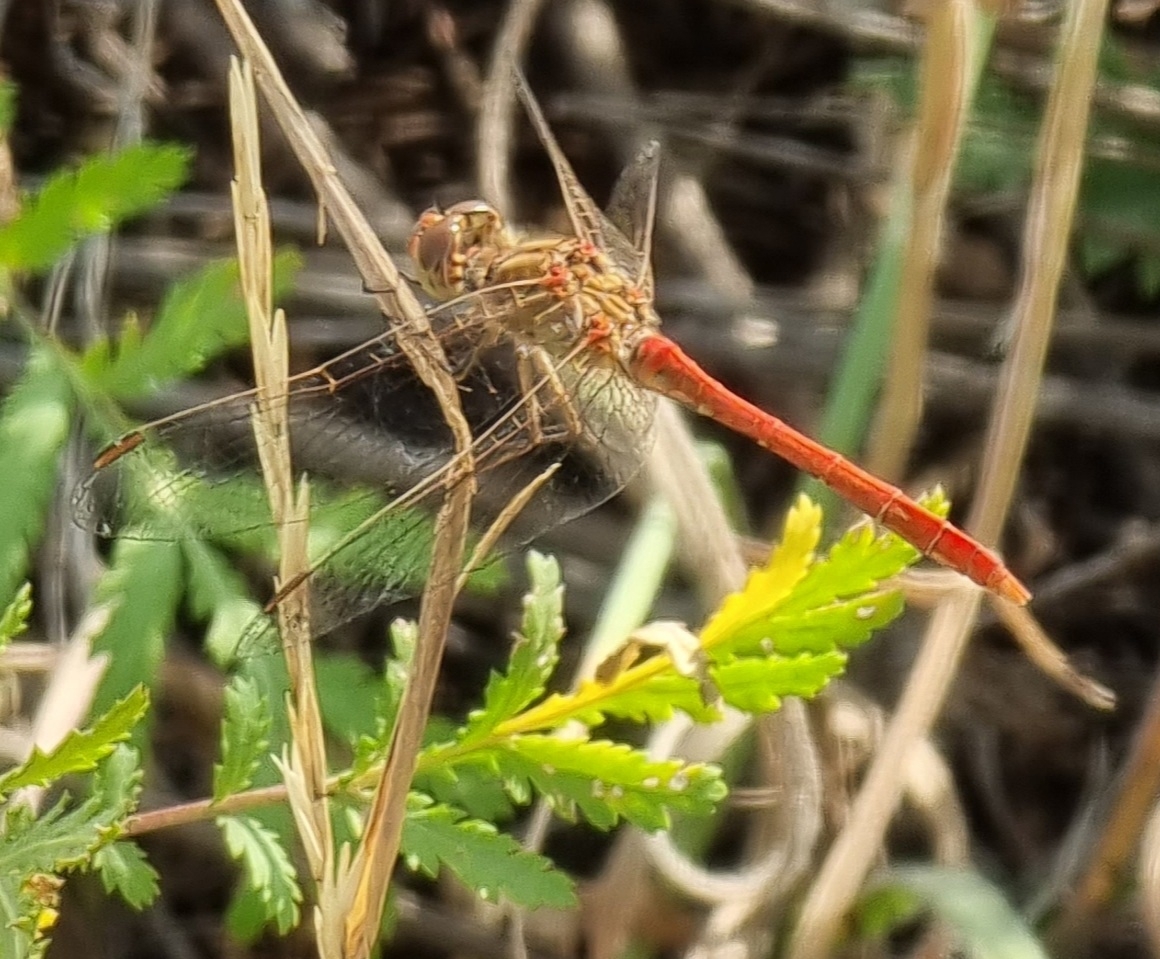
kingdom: Animalia
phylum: Arthropoda
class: Insecta
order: Odonata
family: Libellulidae
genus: Sympetrum
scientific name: Sympetrum meridionale
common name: Southern darter
